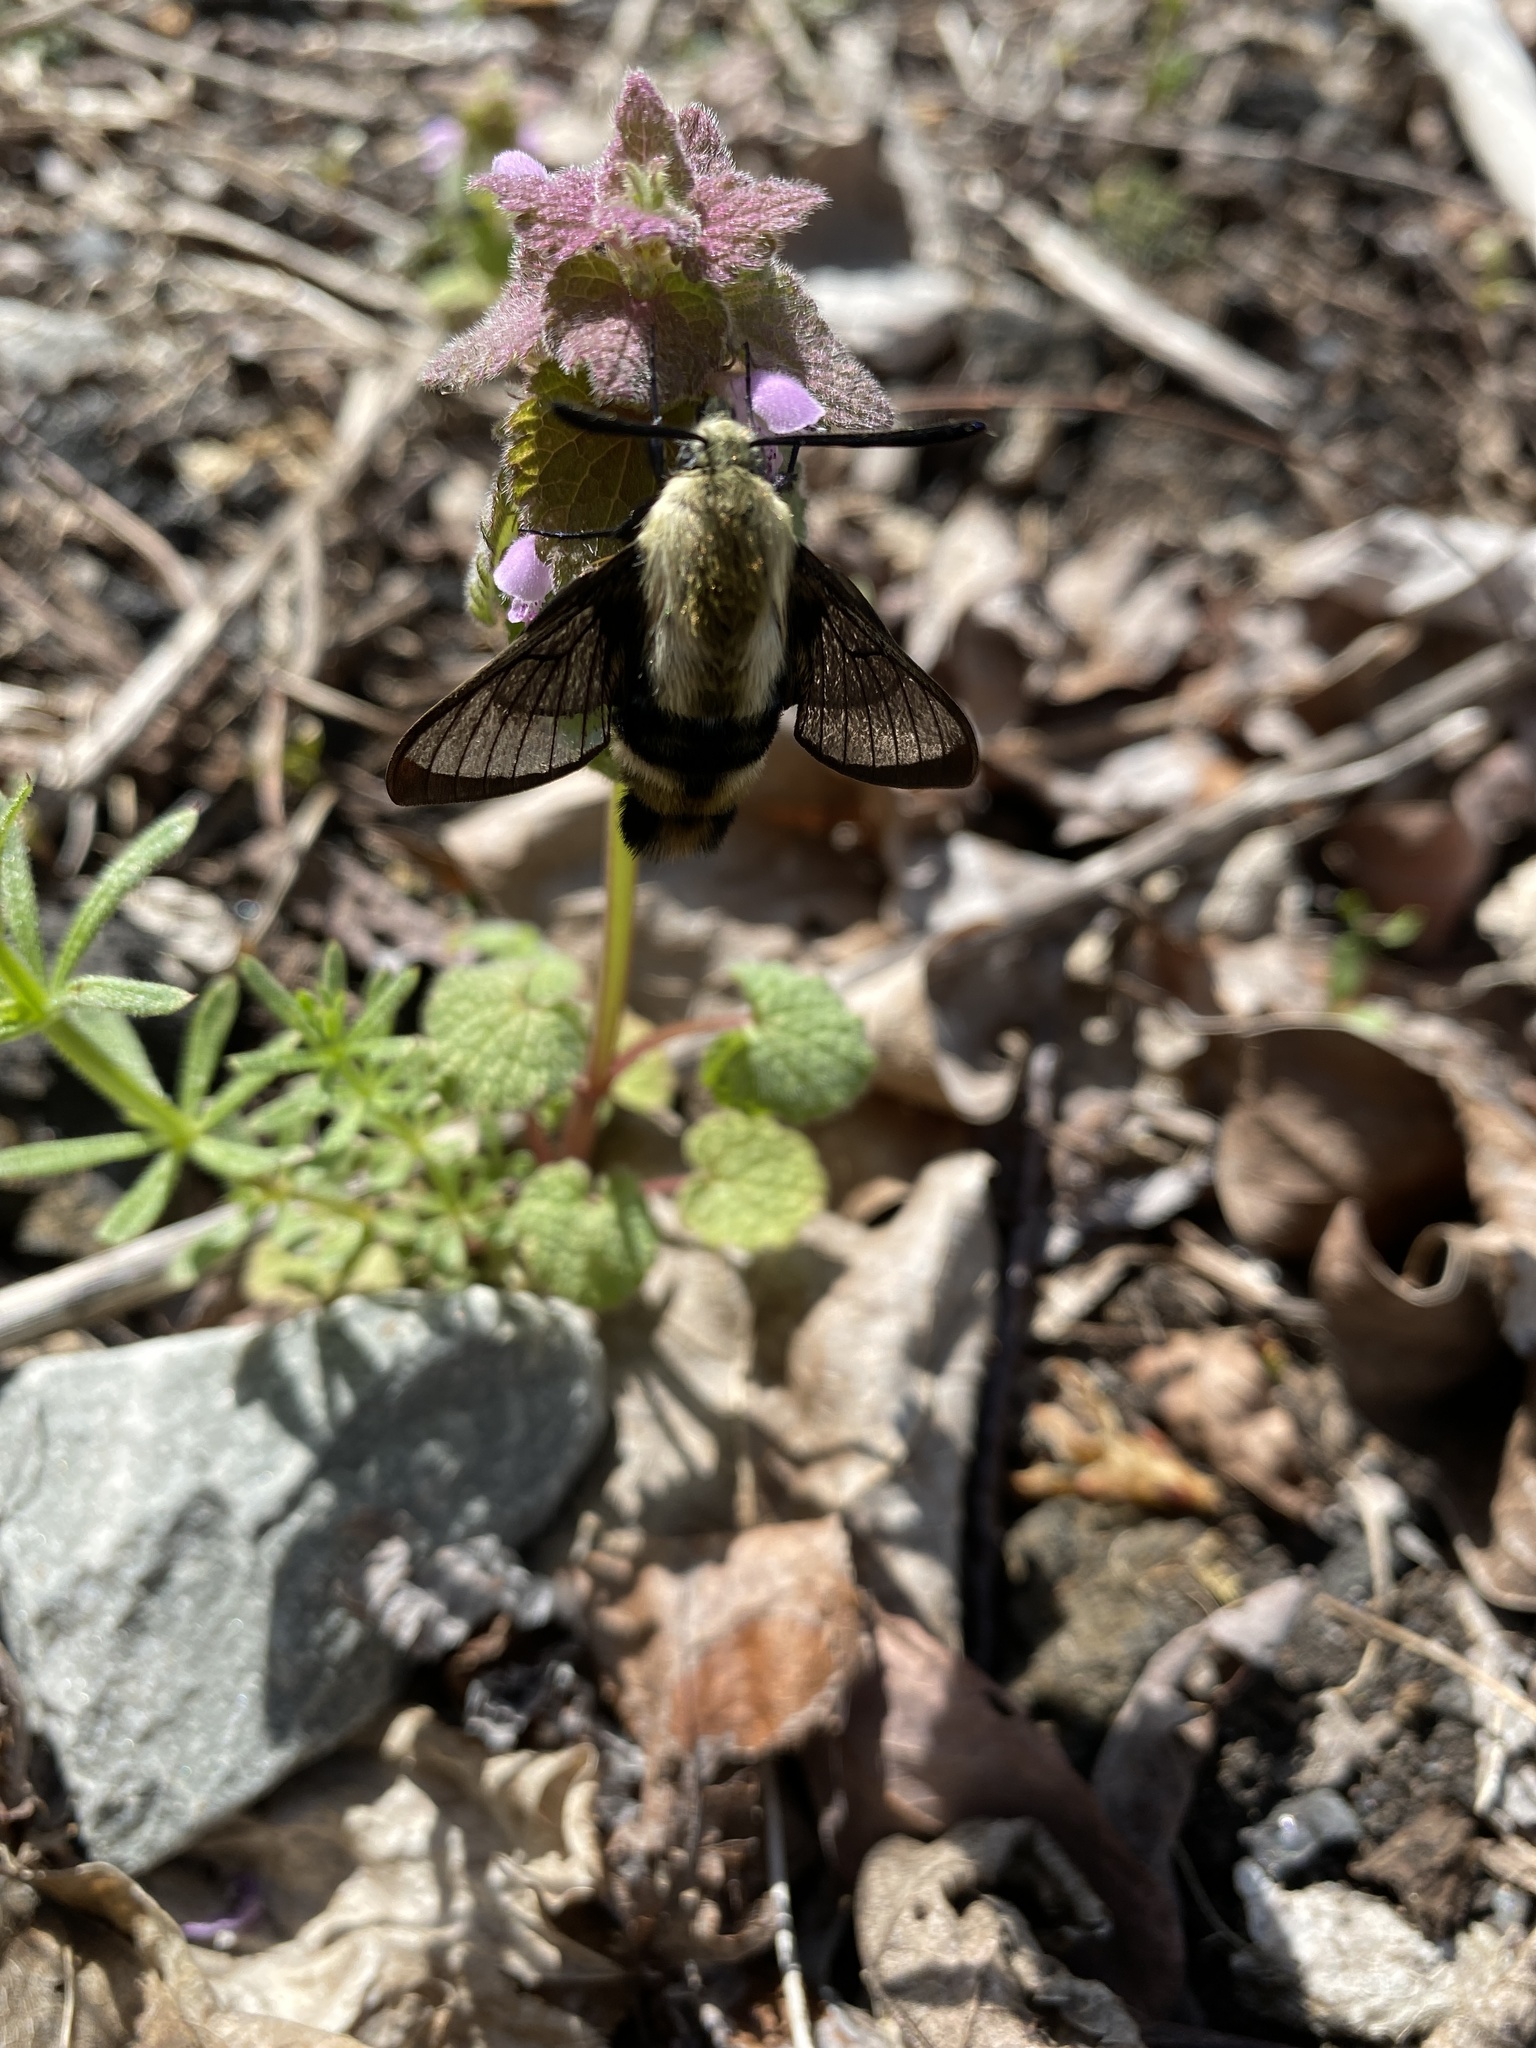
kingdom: Animalia
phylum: Arthropoda
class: Insecta
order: Lepidoptera
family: Sphingidae
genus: Hemaris
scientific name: Hemaris diffinis
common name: Bumblebee moth
